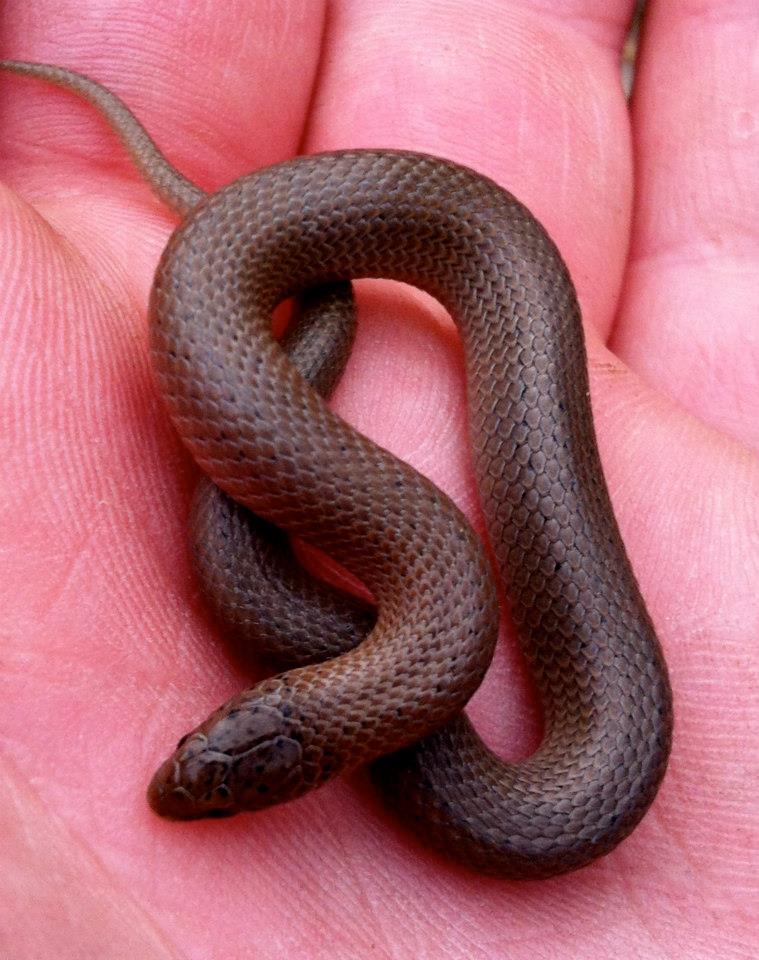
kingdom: Animalia
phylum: Chordata
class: Squamata
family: Colubridae
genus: Virginia
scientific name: Virginia valeriae
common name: Smooth earth snake
